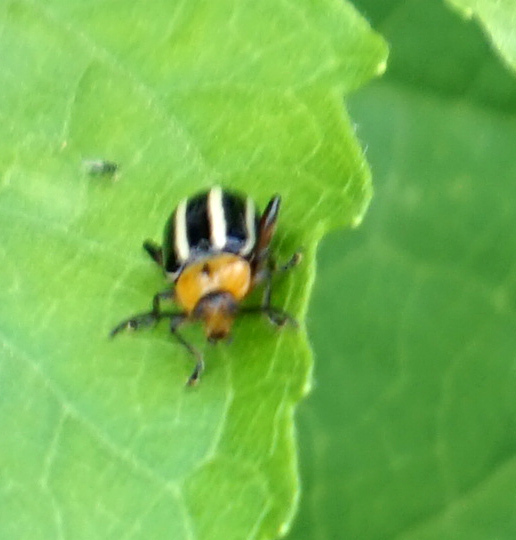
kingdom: Animalia
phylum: Arthropoda
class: Insecta
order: Coleoptera
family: Chrysomelidae
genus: Disonycha
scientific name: Disonycha glabrata
